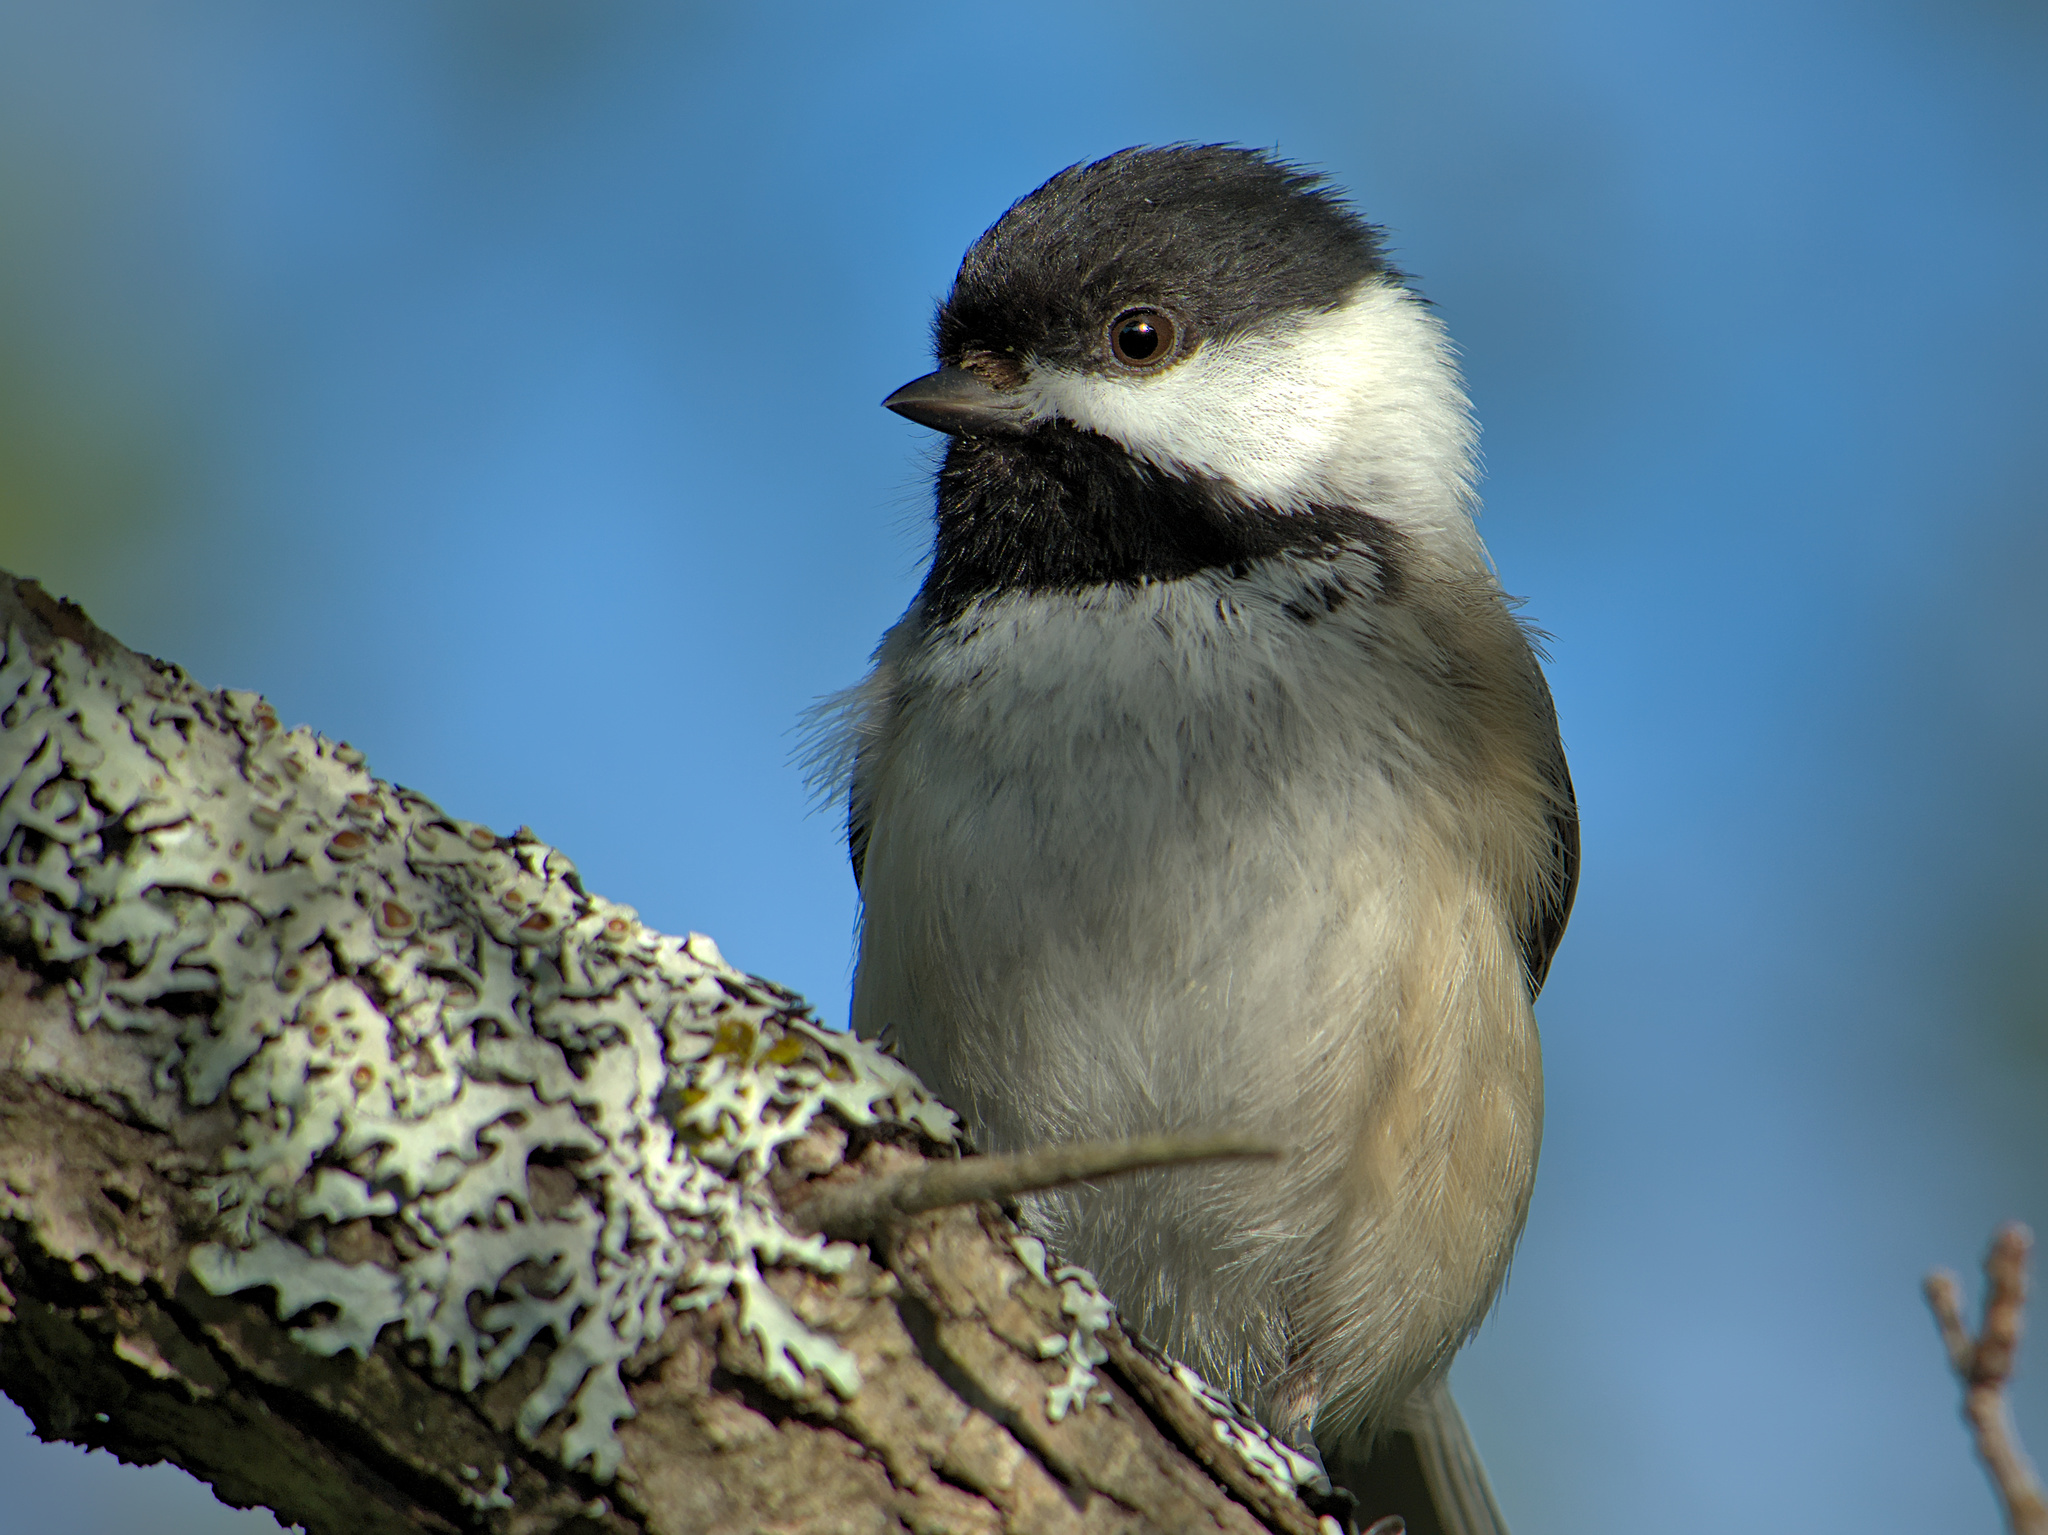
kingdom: Animalia
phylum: Chordata
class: Aves
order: Passeriformes
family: Paridae
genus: Poecile
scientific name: Poecile atricapillus
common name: Black-capped chickadee
